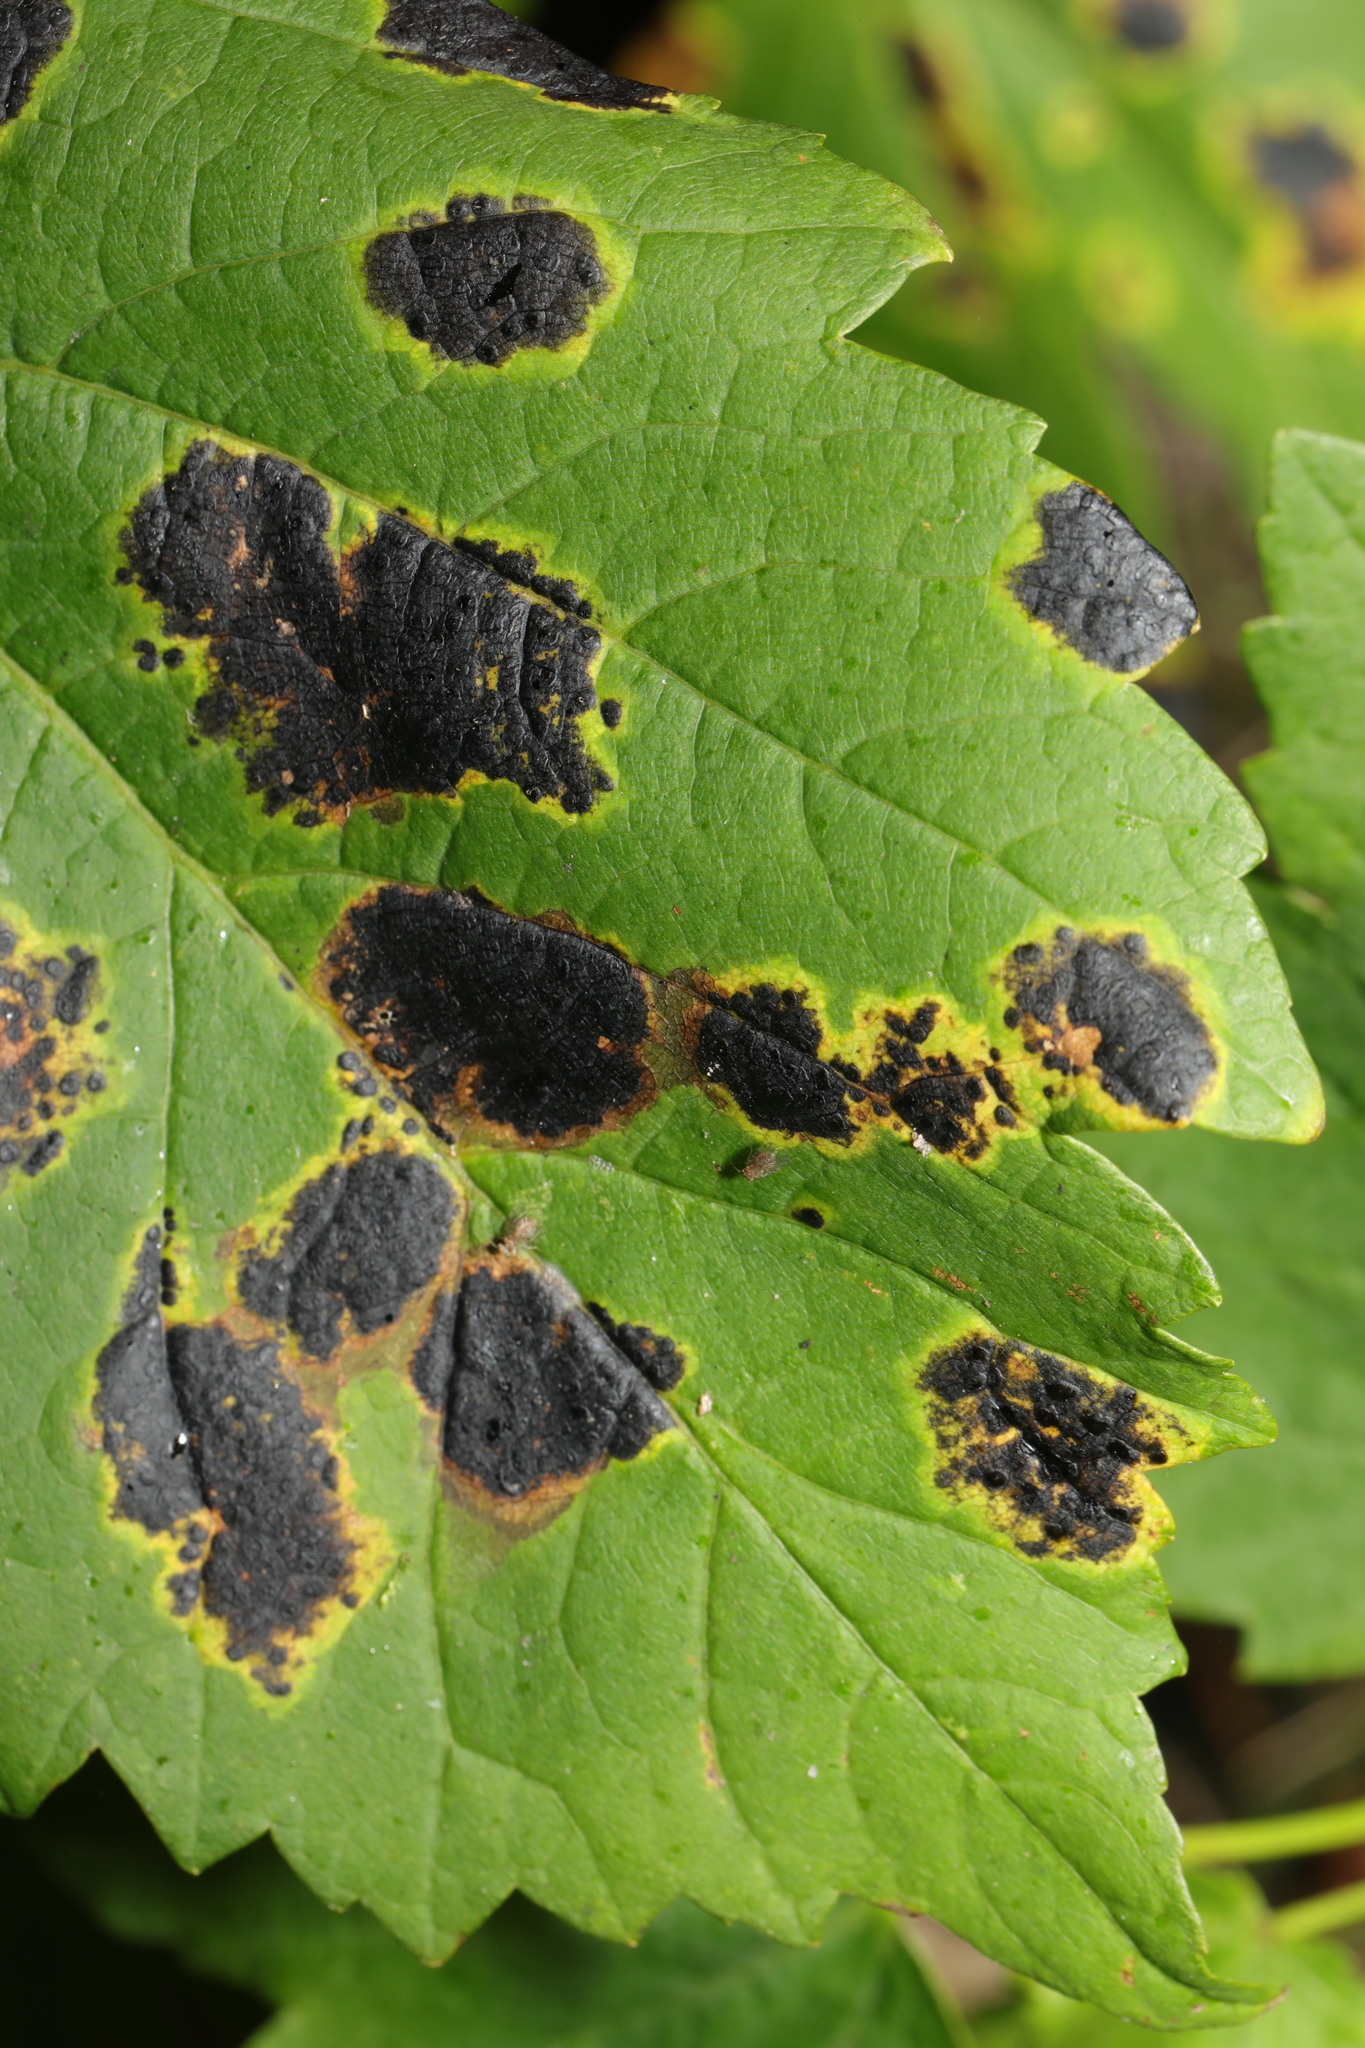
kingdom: Fungi
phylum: Ascomycota
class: Leotiomycetes
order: Rhytismatales
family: Rhytismataceae
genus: Rhytisma
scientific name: Rhytisma acerinum
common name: European tar spot
